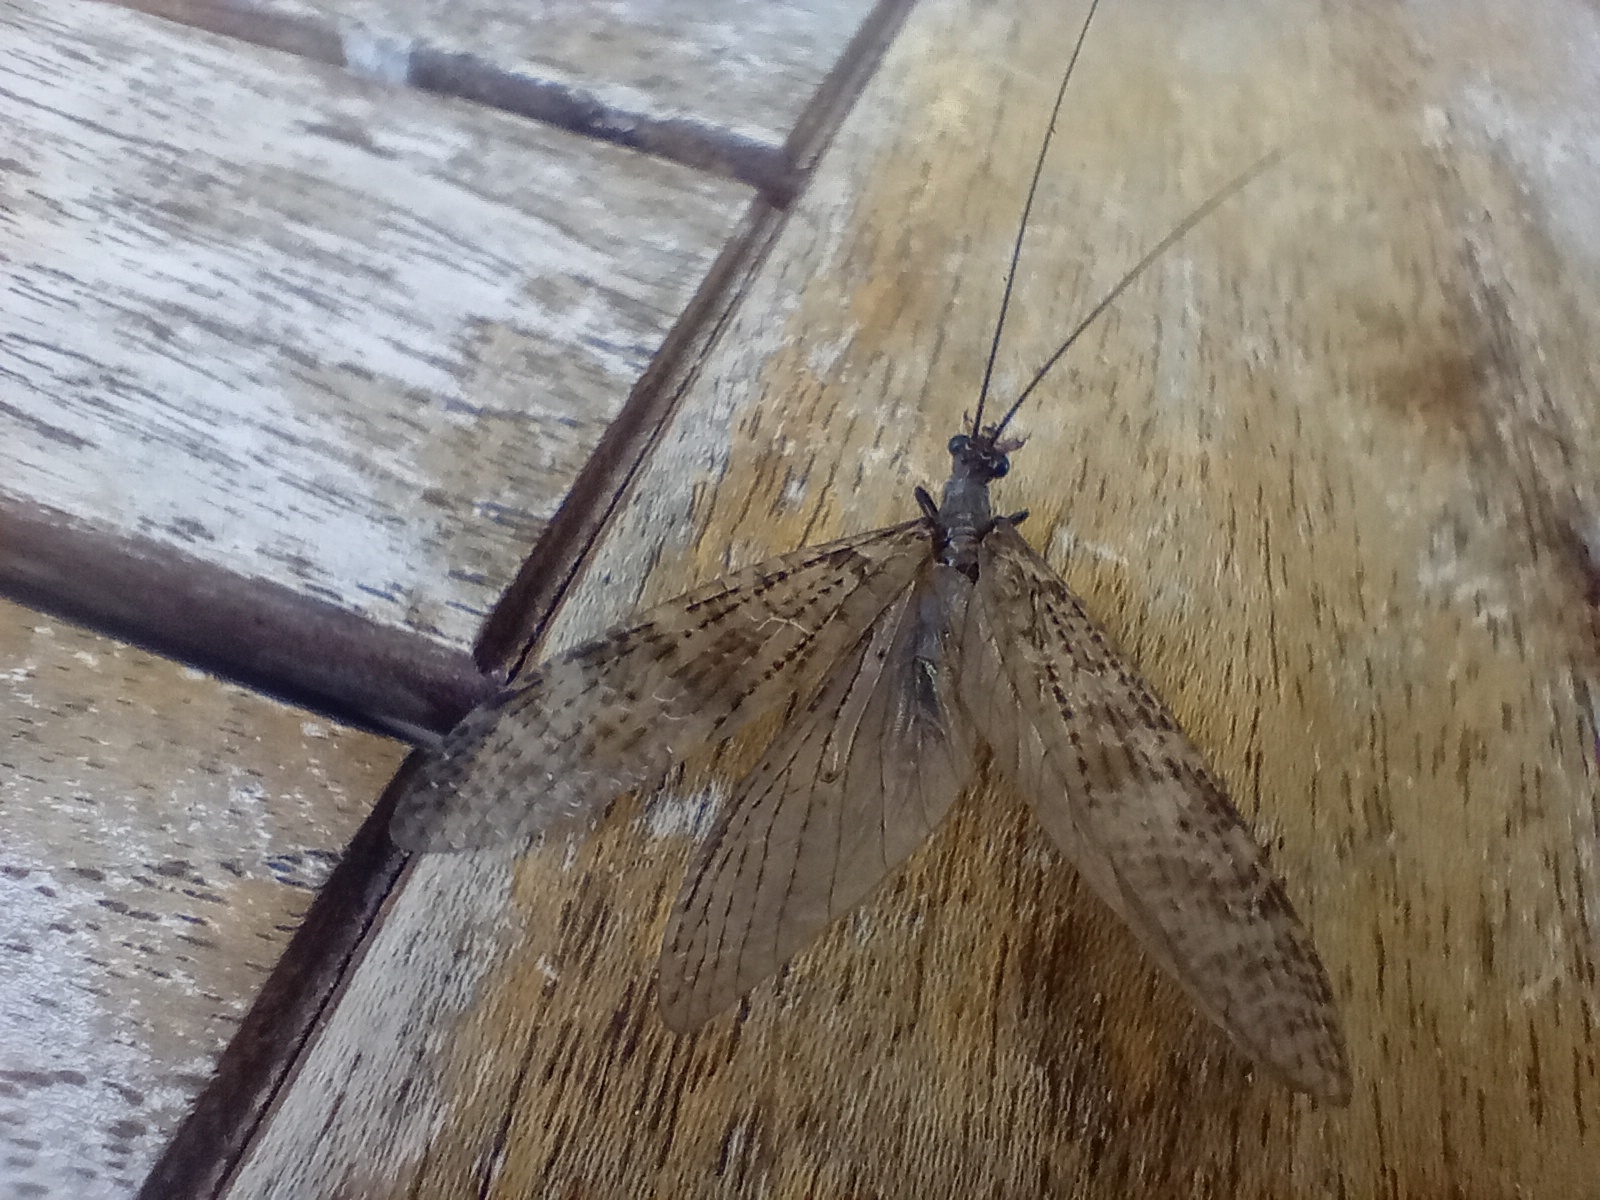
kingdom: Animalia
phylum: Arthropoda
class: Insecta
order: Megaloptera
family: Corydalidae
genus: Archichauliodes
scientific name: Archichauliodes diversus
